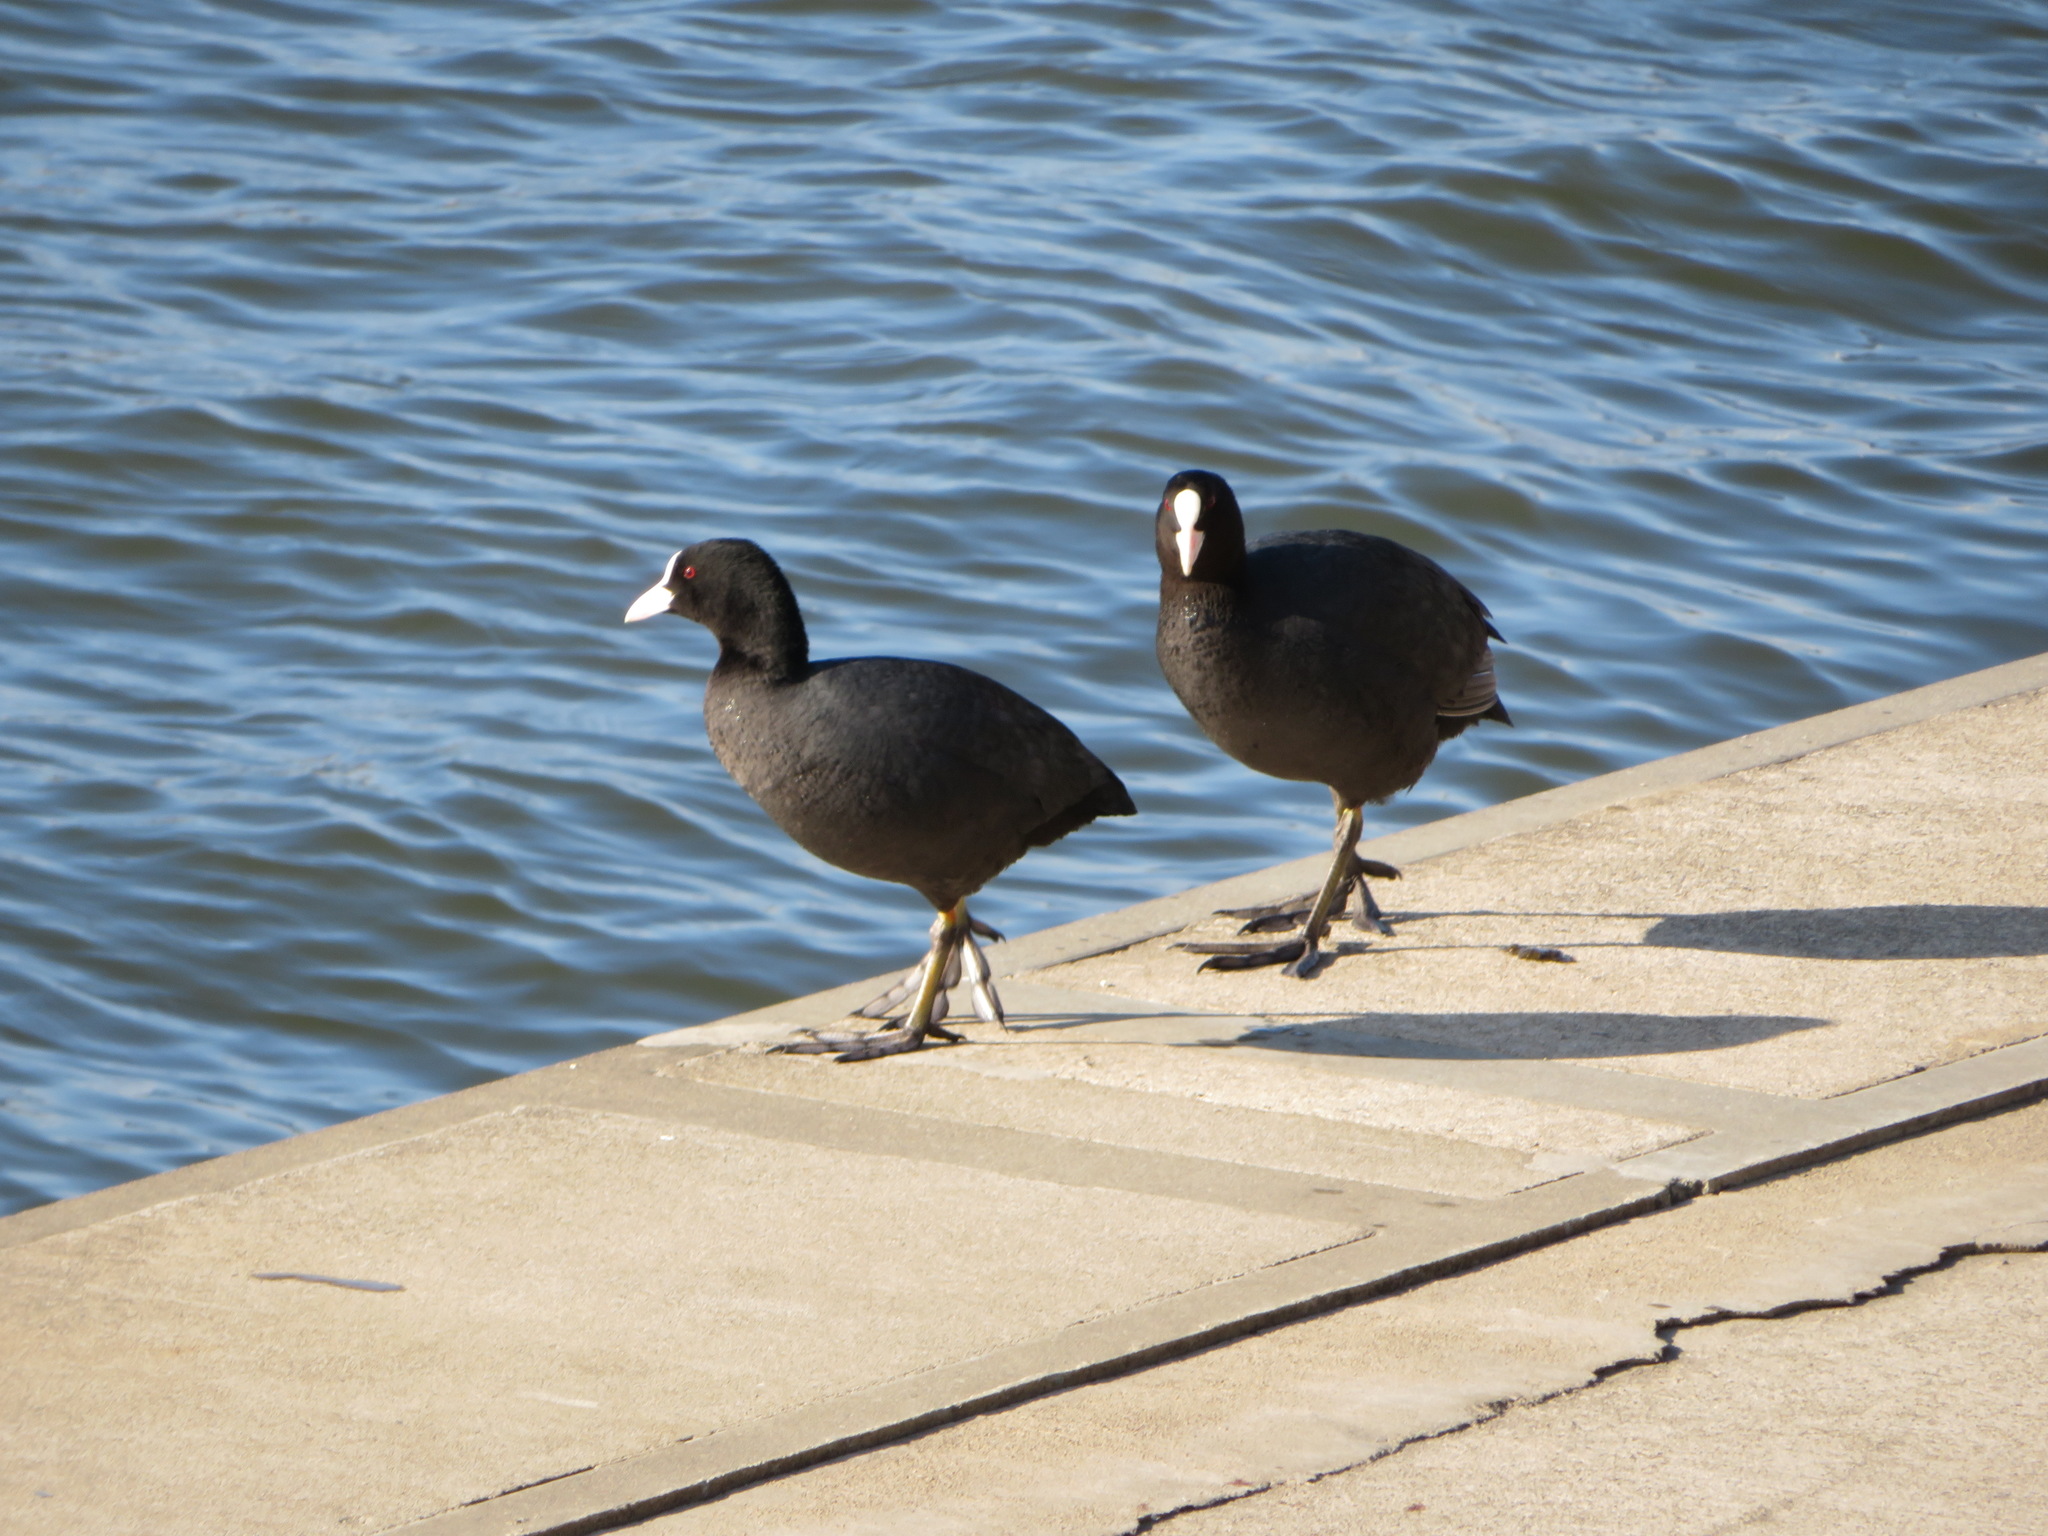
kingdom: Animalia
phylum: Chordata
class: Aves
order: Gruiformes
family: Rallidae
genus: Fulica
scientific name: Fulica atra
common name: Eurasian coot
